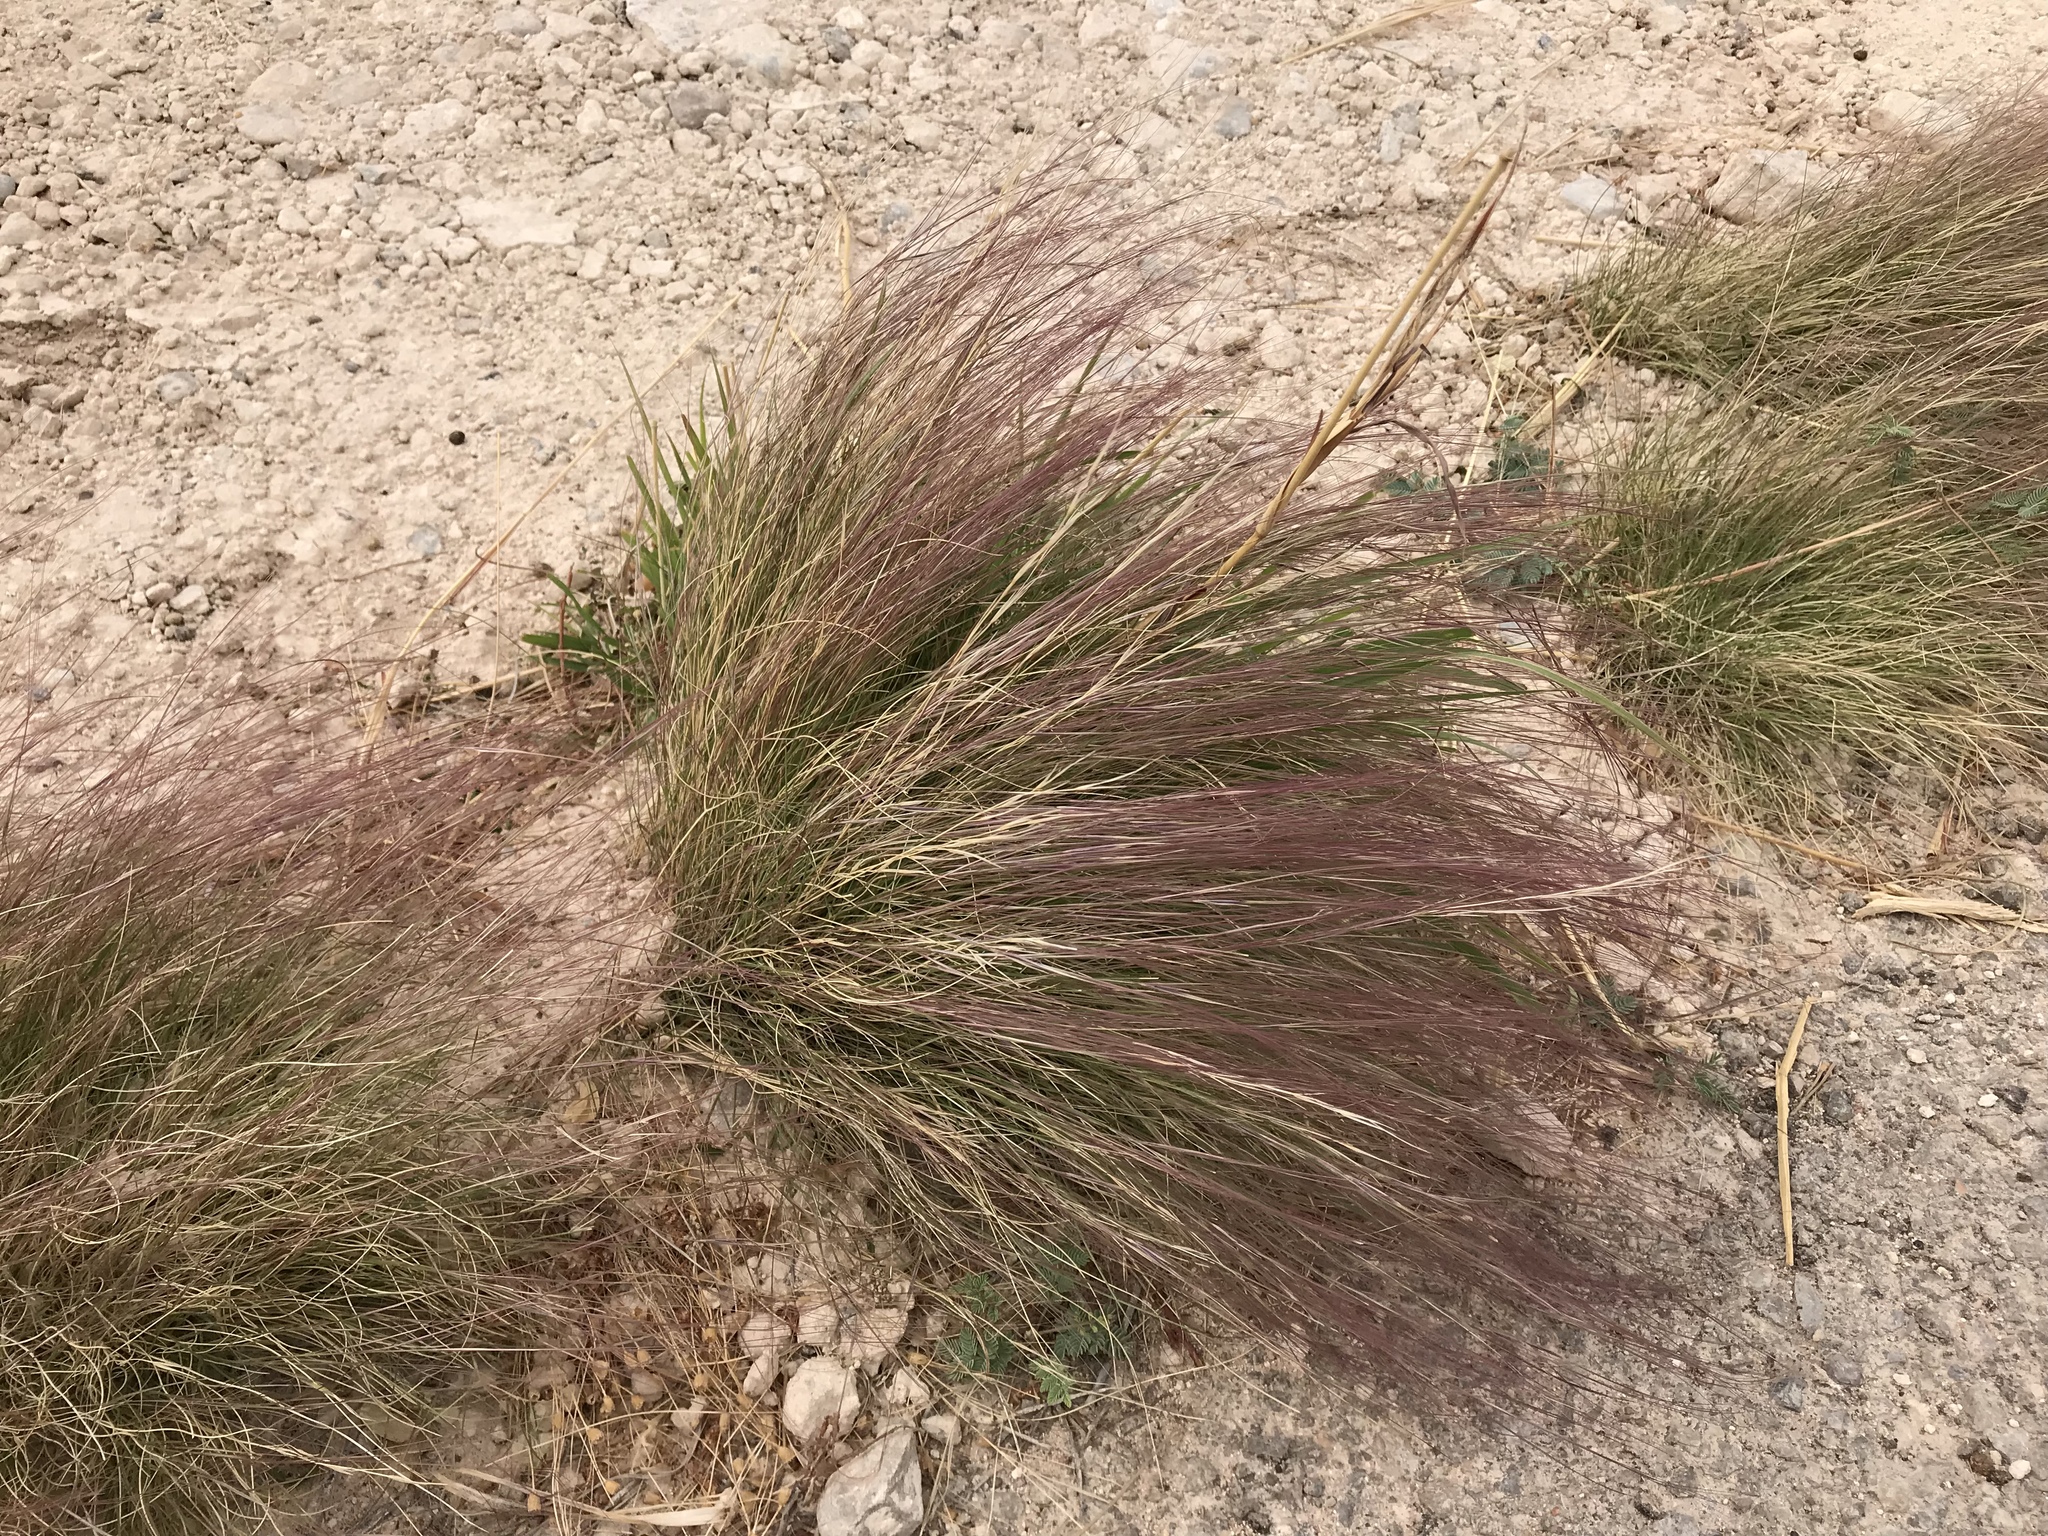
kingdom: Plantae
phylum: Tracheophyta
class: Liliopsida
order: Poales
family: Poaceae
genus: Aristida
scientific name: Aristida purpurea
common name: Purple threeawn
